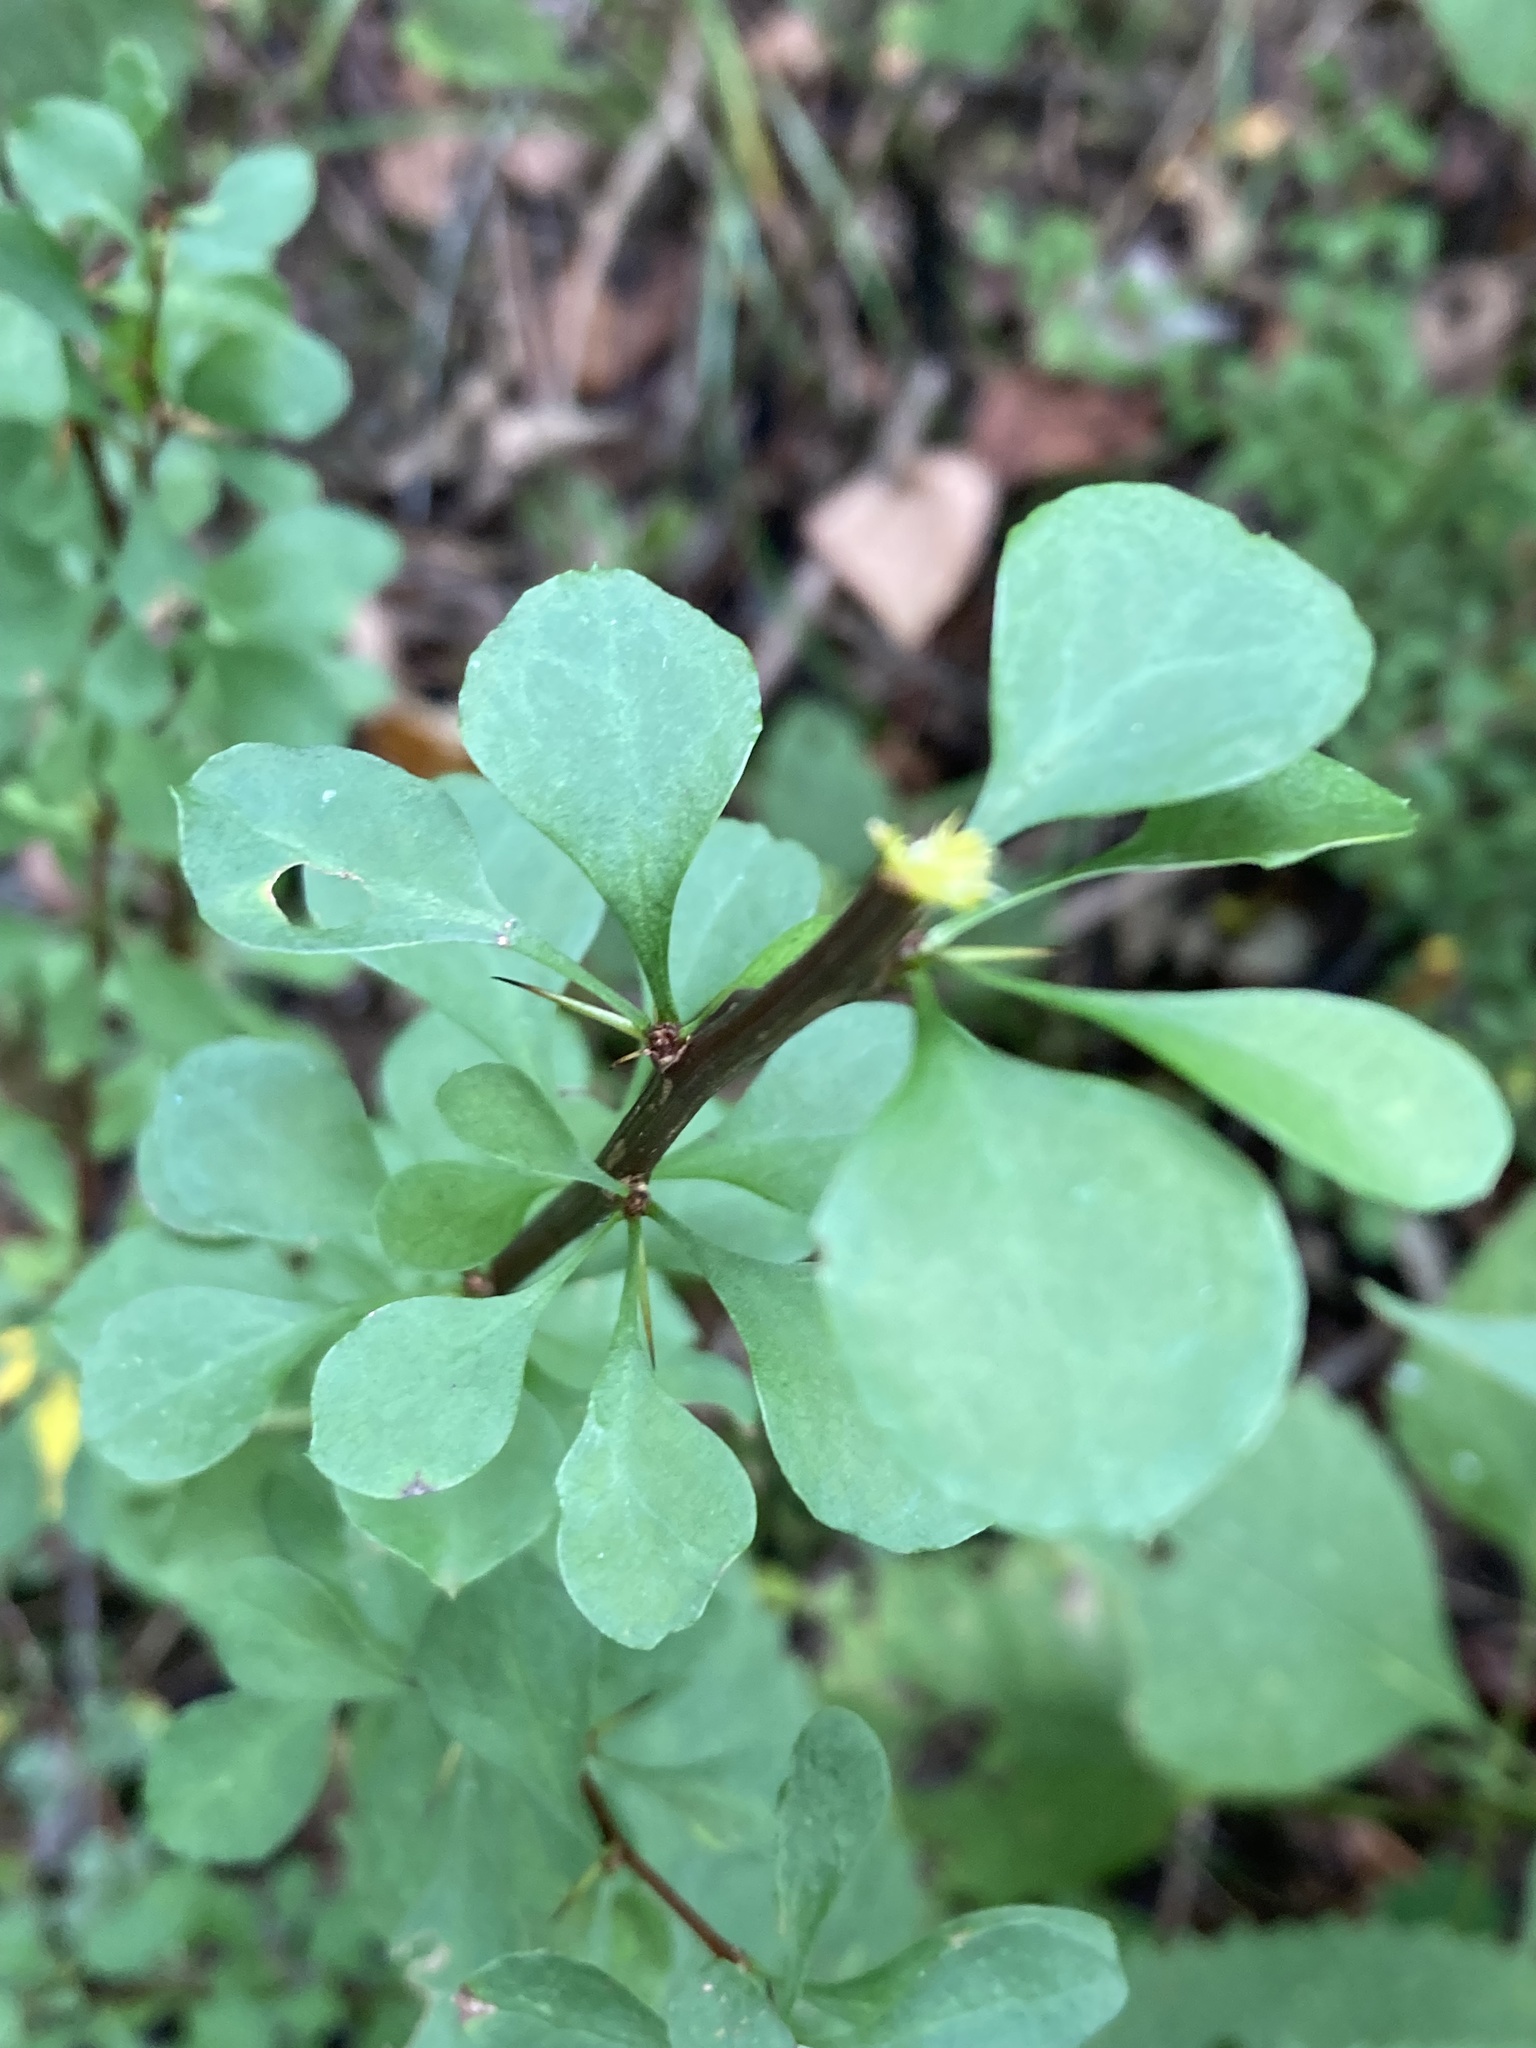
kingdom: Plantae
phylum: Tracheophyta
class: Magnoliopsida
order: Ranunculales
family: Berberidaceae
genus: Berberis
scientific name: Berberis thunbergii
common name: Japanese barberry
